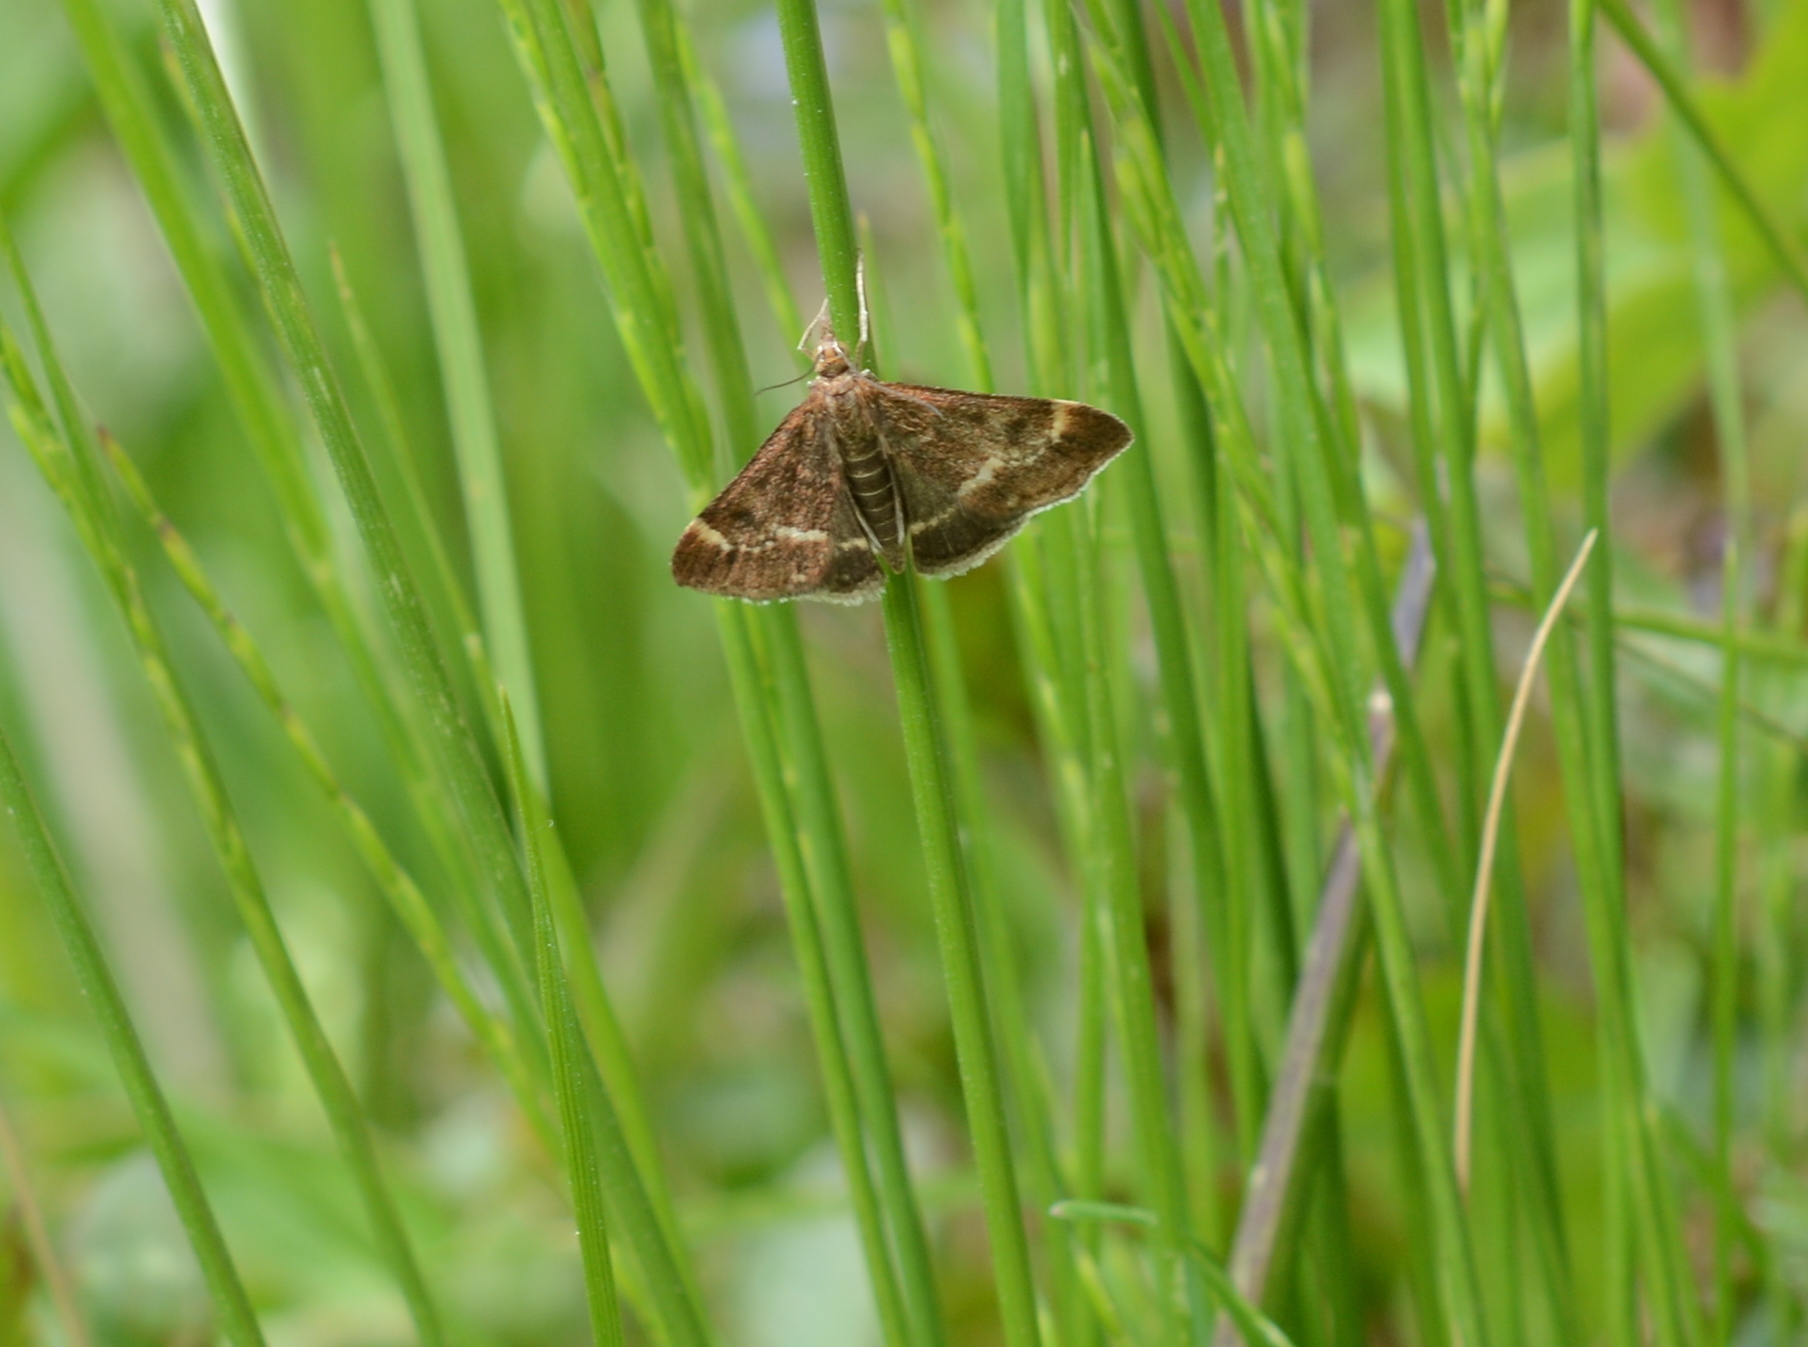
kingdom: Animalia
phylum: Arthropoda
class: Insecta
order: Lepidoptera
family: Crambidae
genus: Pyrausta
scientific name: Pyrausta nicalis
